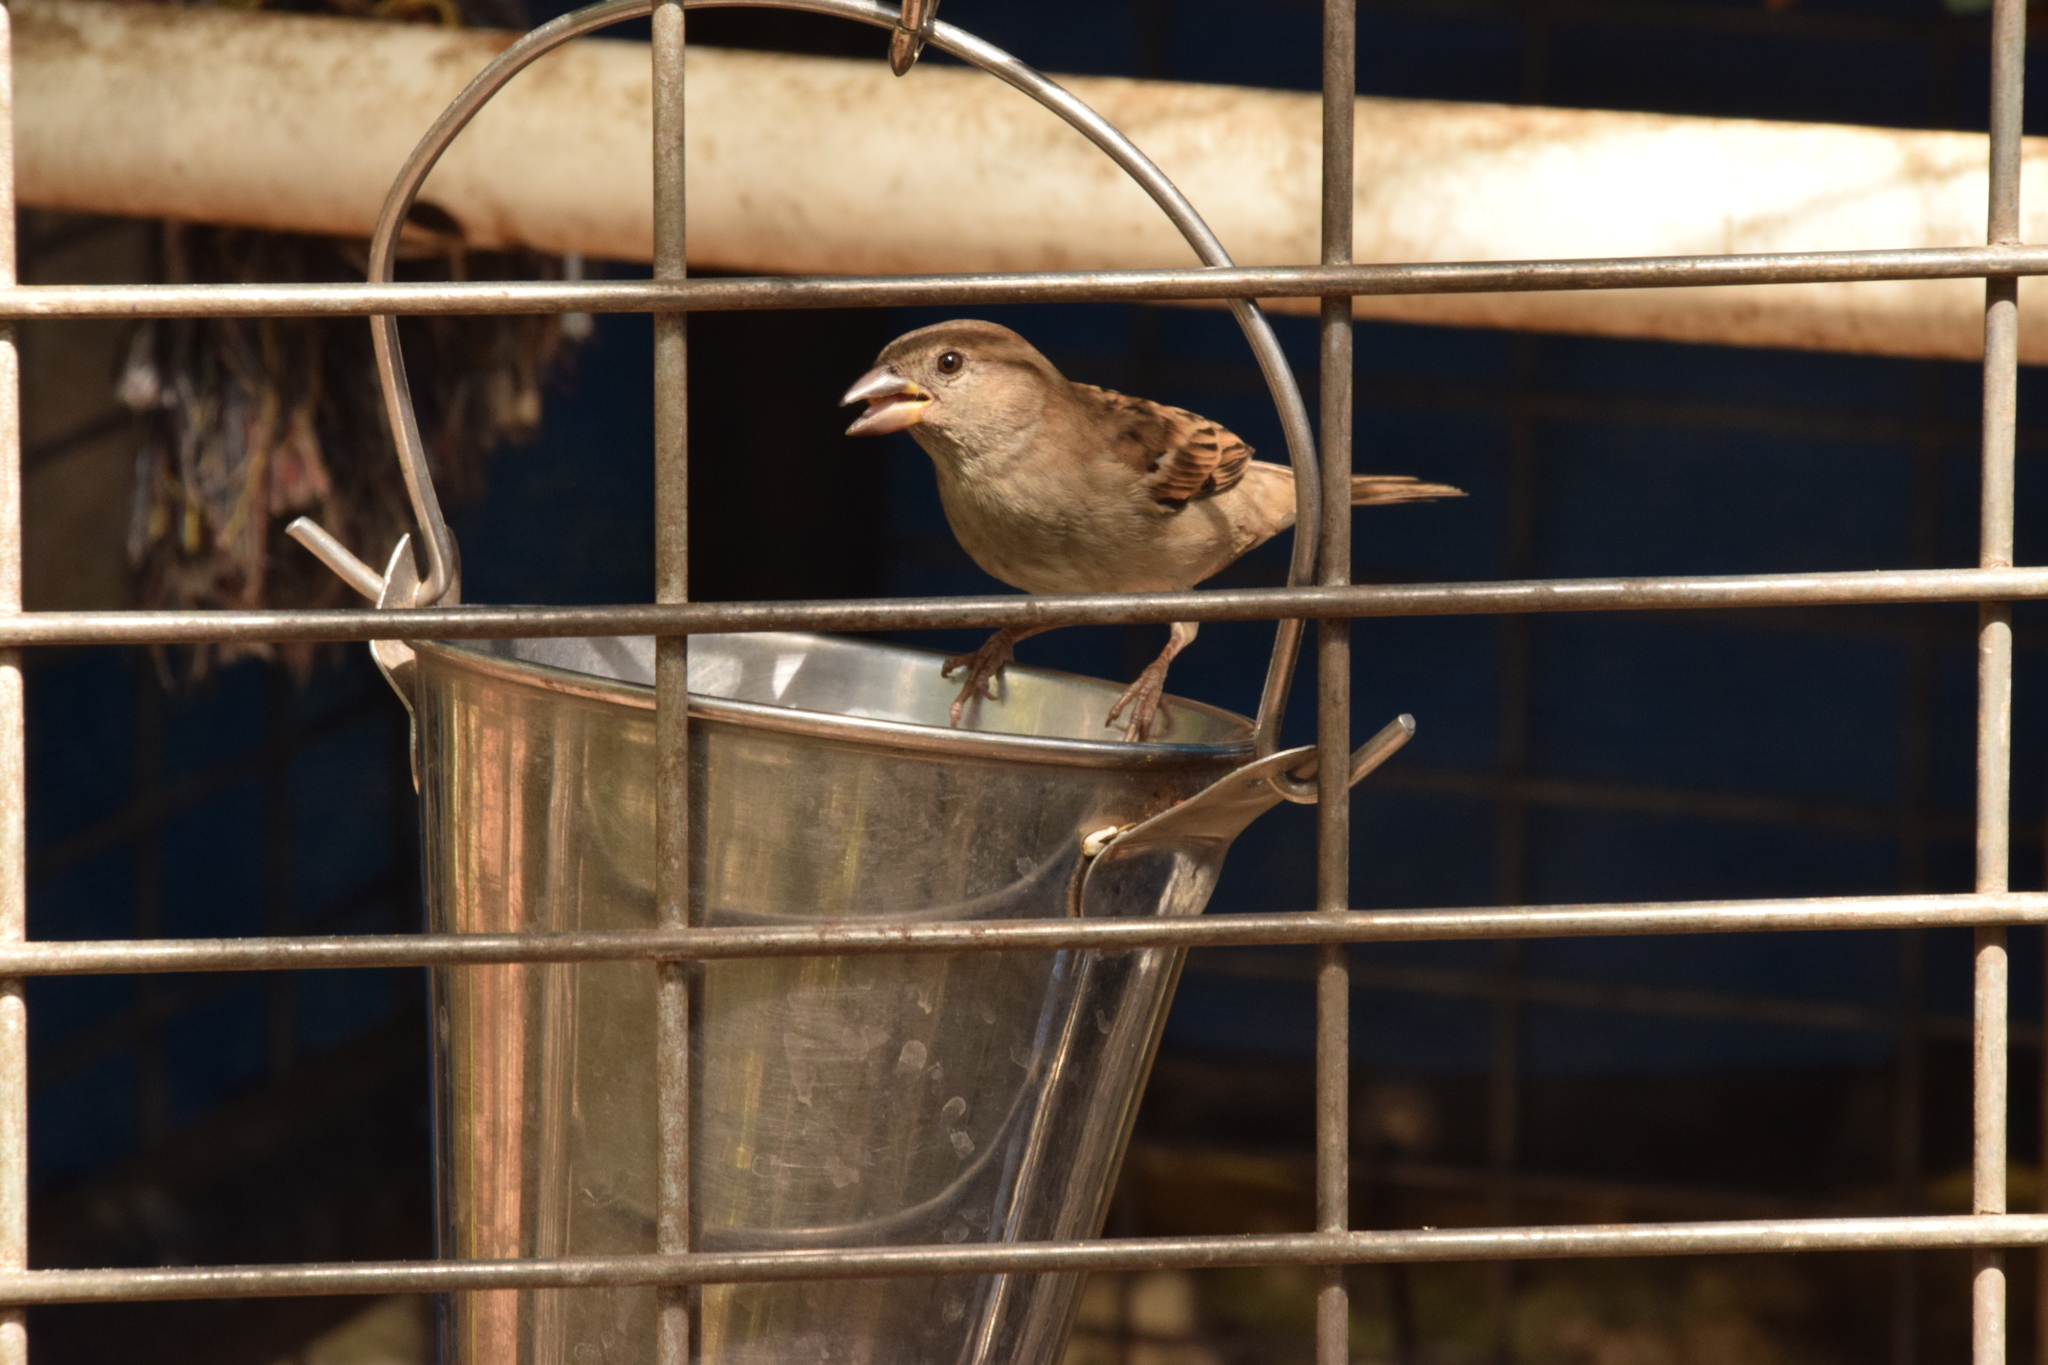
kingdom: Animalia
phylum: Chordata
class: Aves
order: Passeriformes
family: Passeridae
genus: Passer
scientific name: Passer domesticus
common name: House sparrow
